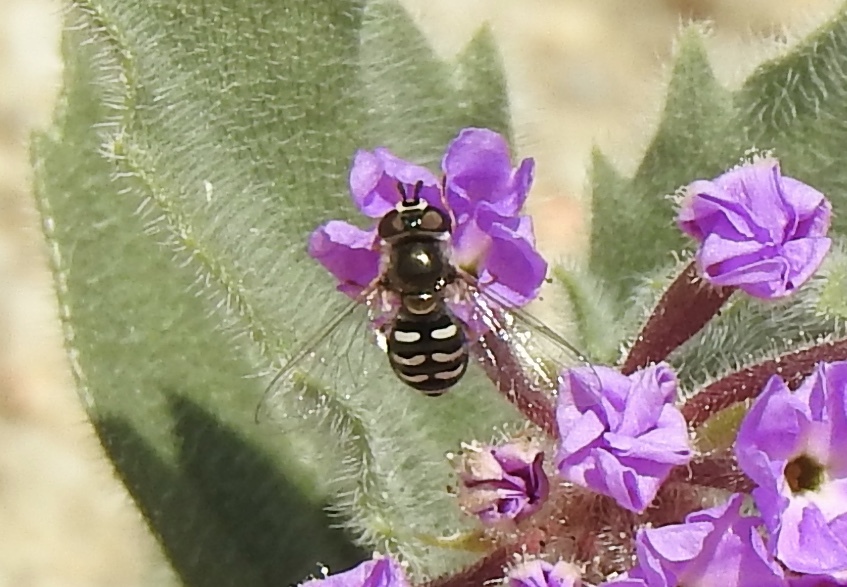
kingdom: Animalia
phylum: Arthropoda
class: Insecta
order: Diptera
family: Syrphidae
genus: Eupeodes
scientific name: Eupeodes volucris
